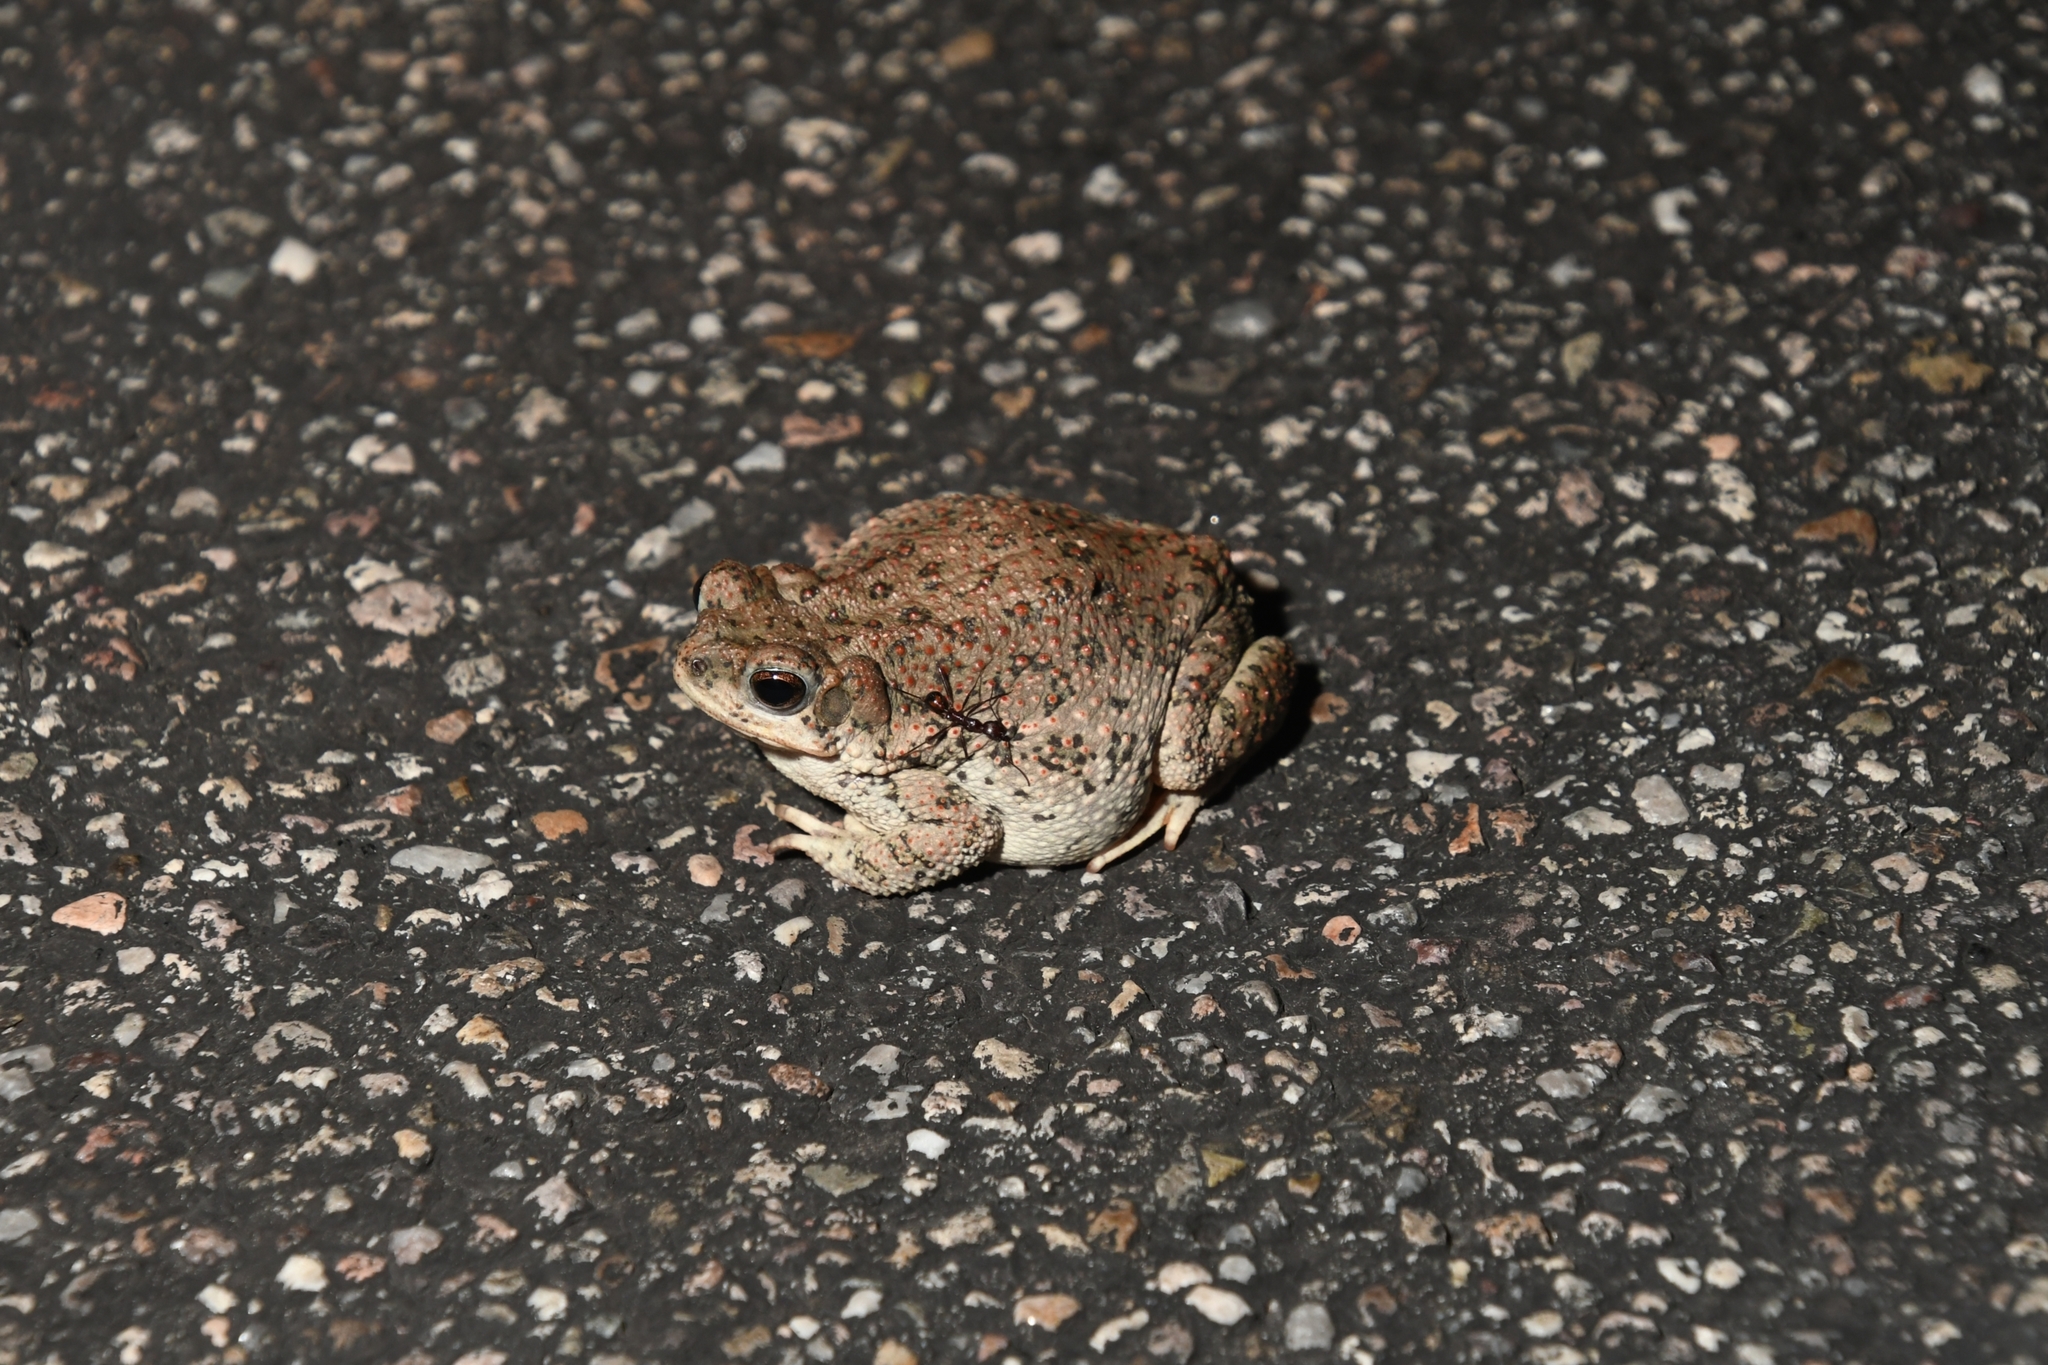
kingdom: Animalia
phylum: Chordata
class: Amphibia
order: Anura
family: Bufonidae
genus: Anaxyrus
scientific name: Anaxyrus punctatus
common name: Red-spotted toad
